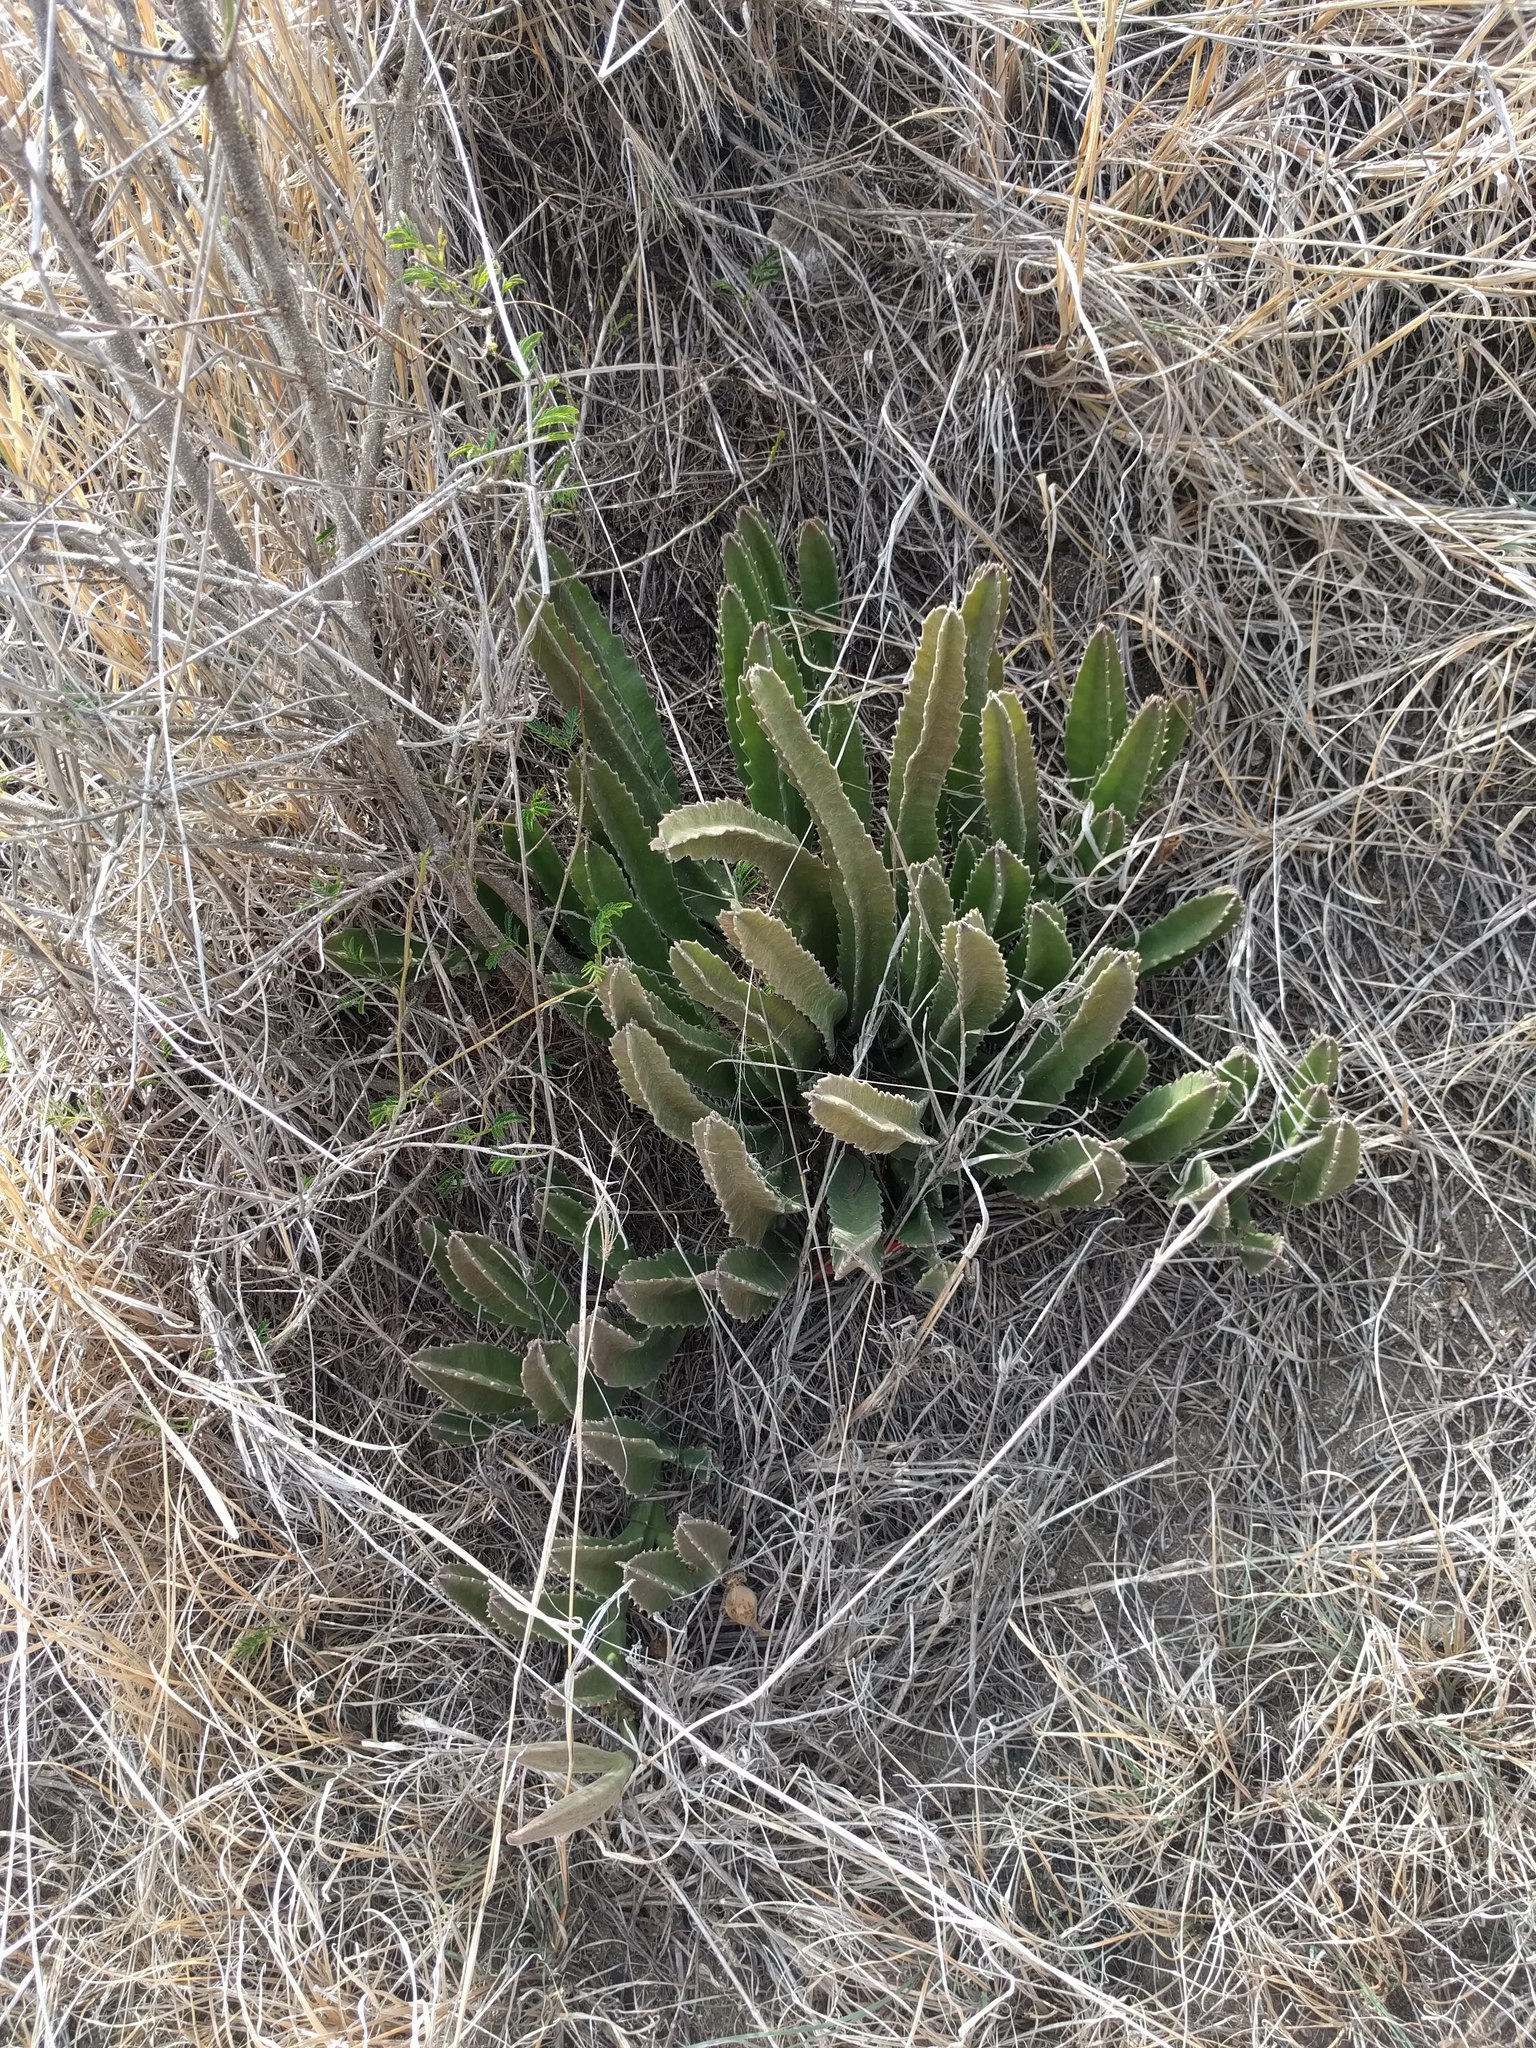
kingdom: Plantae
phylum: Tracheophyta
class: Magnoliopsida
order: Gentianales
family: Apocynaceae
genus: Ceropegia
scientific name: Ceropegia gigantea
